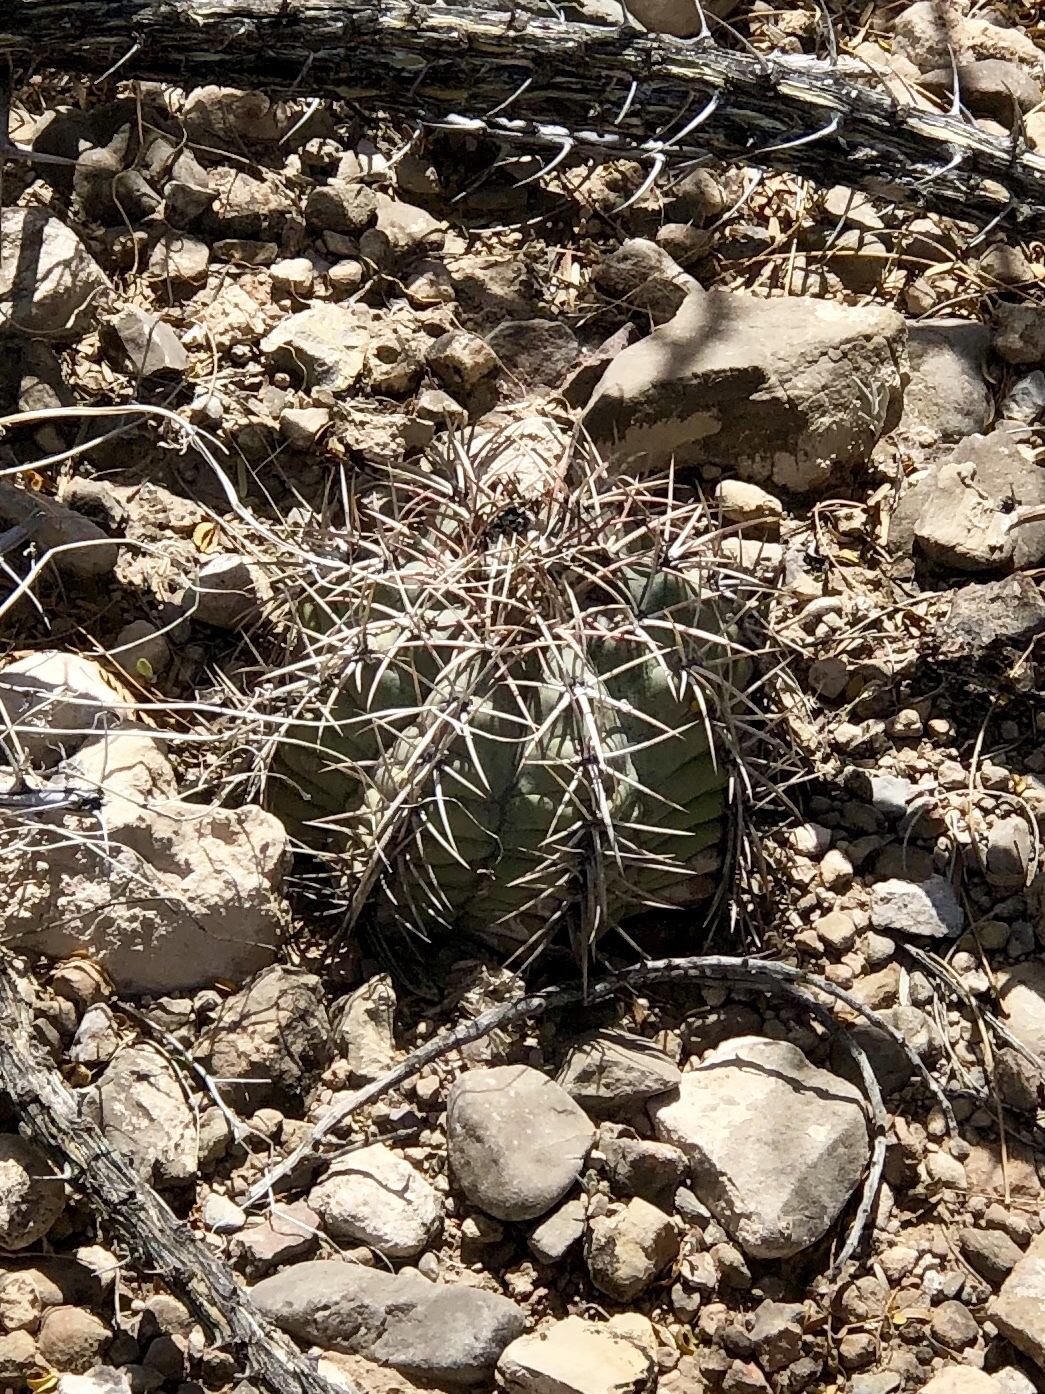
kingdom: Plantae
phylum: Tracheophyta
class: Magnoliopsida
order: Caryophyllales
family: Cactaceae
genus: Echinocactus
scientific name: Echinocactus horizonthalonius
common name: Devilshead
